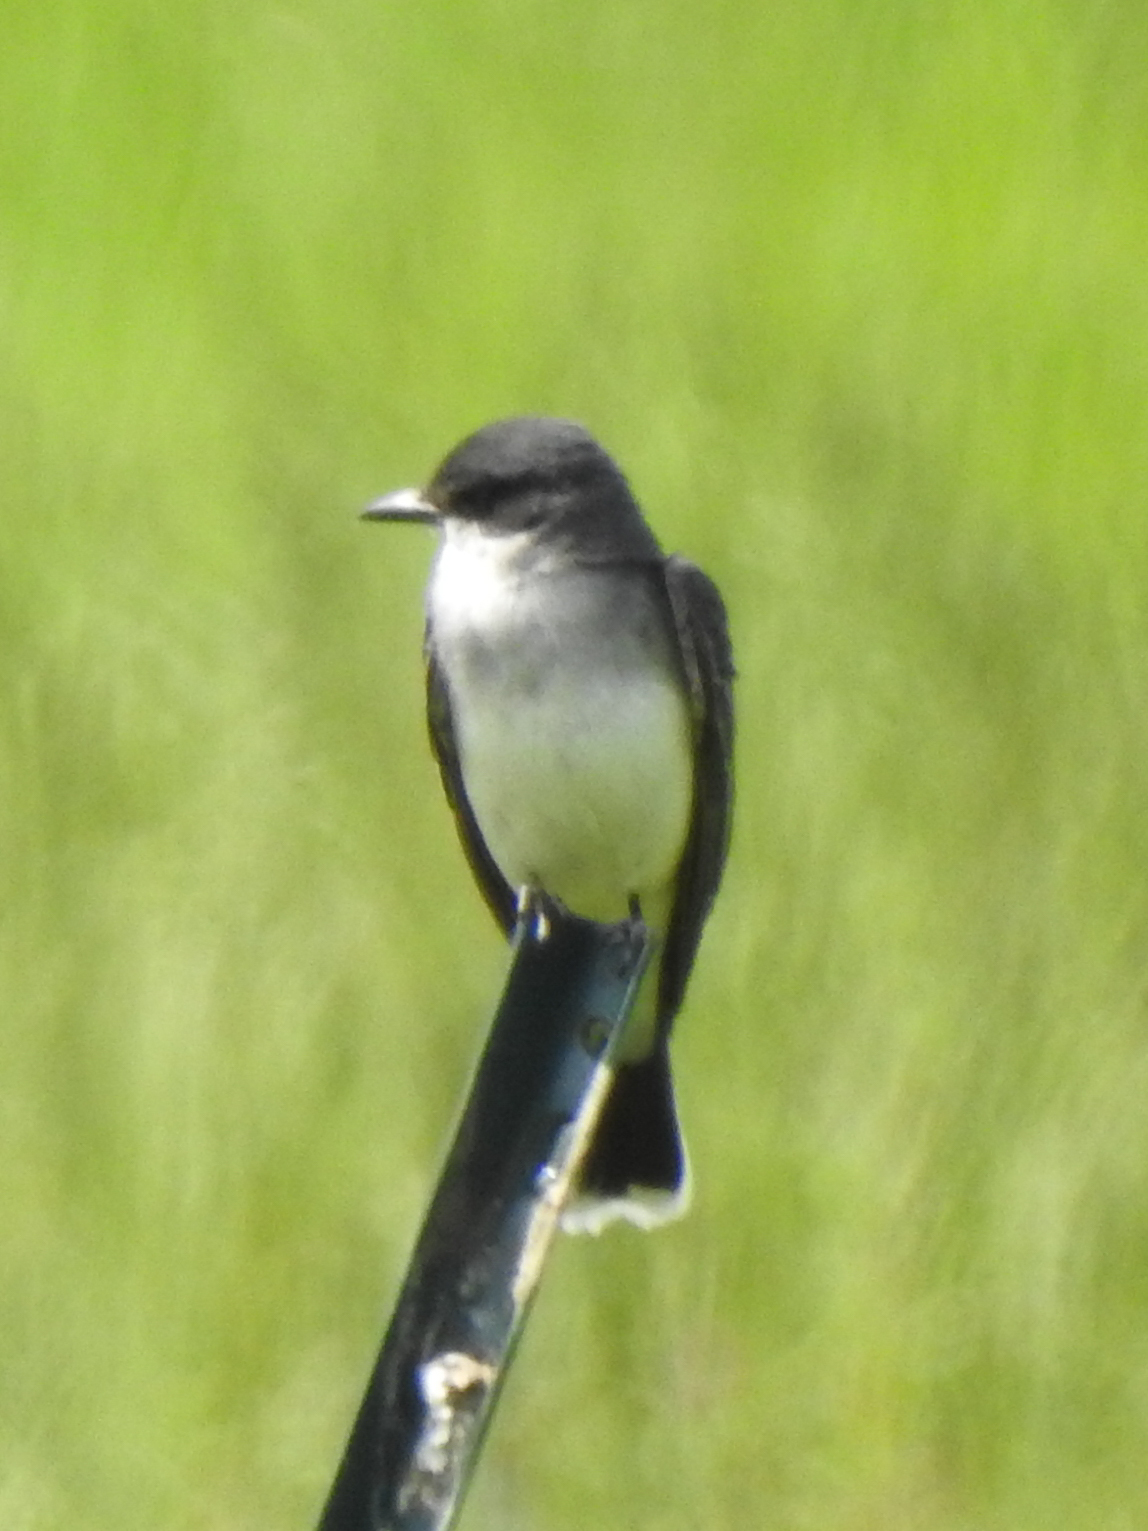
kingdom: Animalia
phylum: Chordata
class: Aves
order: Passeriformes
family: Tyrannidae
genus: Tyrannus
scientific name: Tyrannus tyrannus
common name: Eastern kingbird
